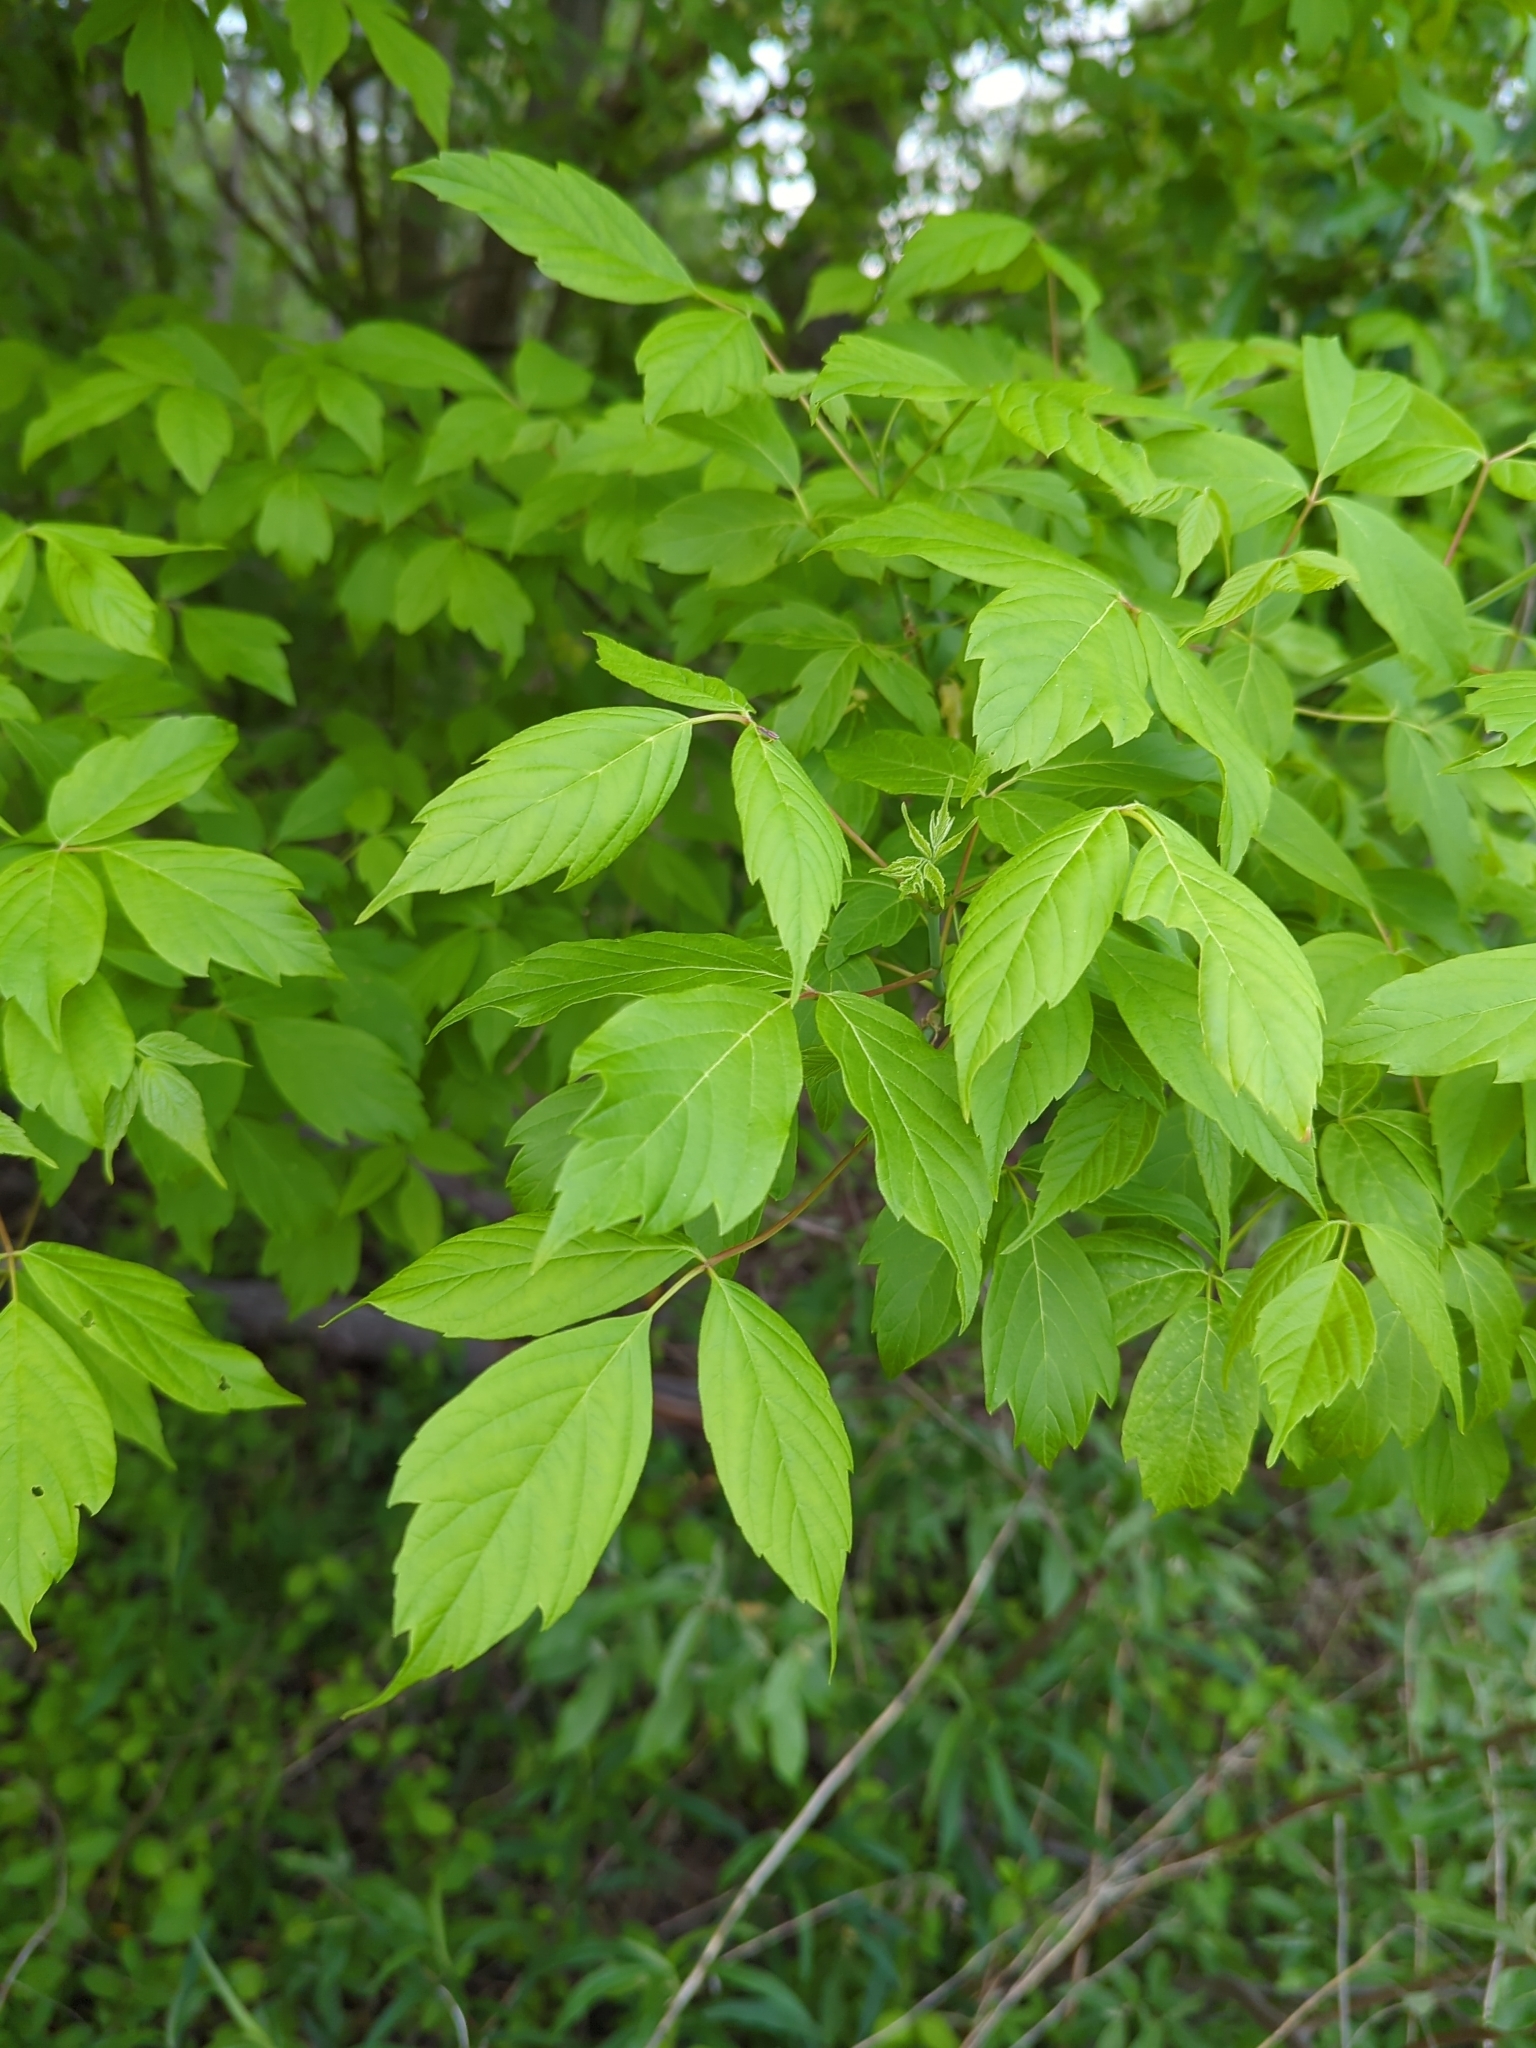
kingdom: Plantae
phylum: Tracheophyta
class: Magnoliopsida
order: Sapindales
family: Sapindaceae
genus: Acer
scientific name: Acer negundo
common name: Ashleaf maple
